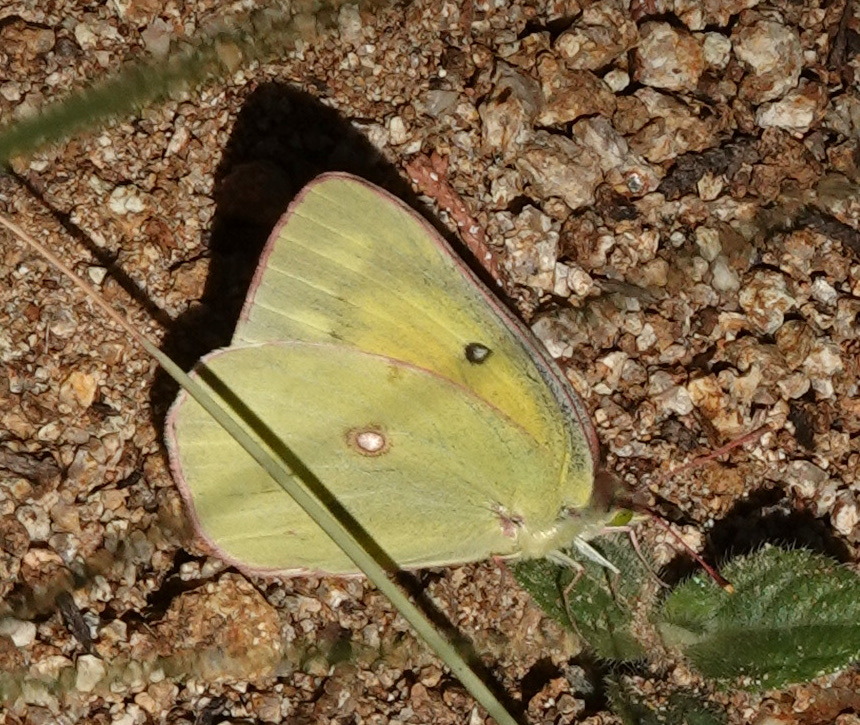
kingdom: Animalia
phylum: Arthropoda
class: Insecta
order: Lepidoptera
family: Pieridae
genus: Colias
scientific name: Colias eurytheme
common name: Alfalfa butterfly
